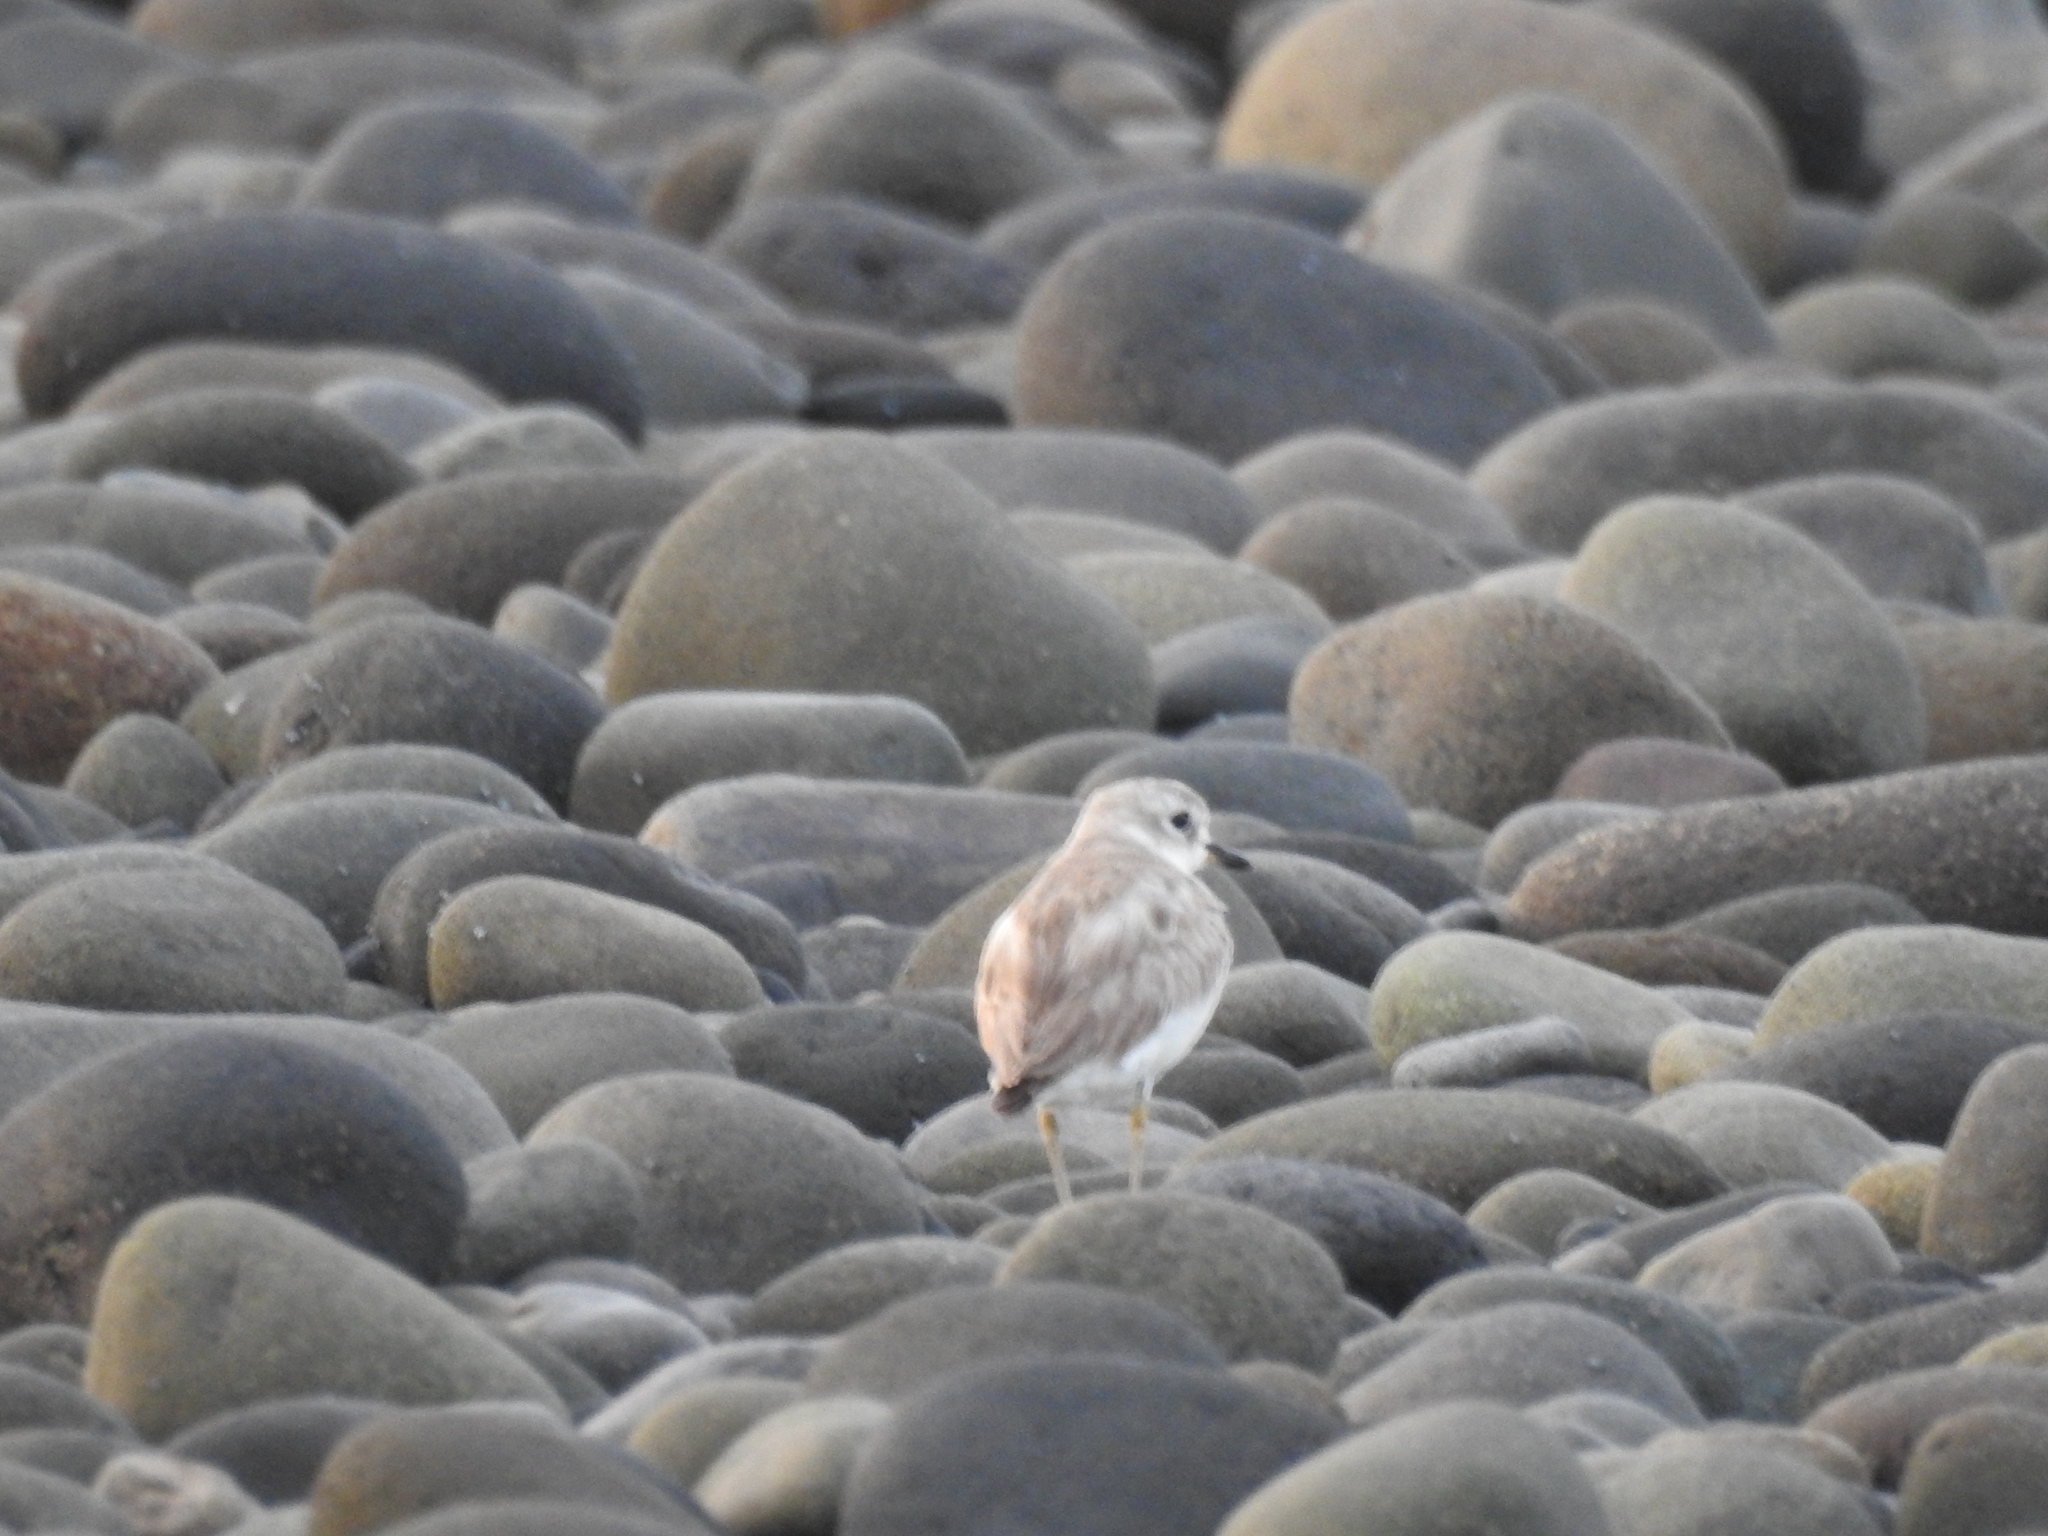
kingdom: Animalia
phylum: Chordata
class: Aves
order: Charadriiformes
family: Charadriidae
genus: Anarhynchus
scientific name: Anarhynchus
